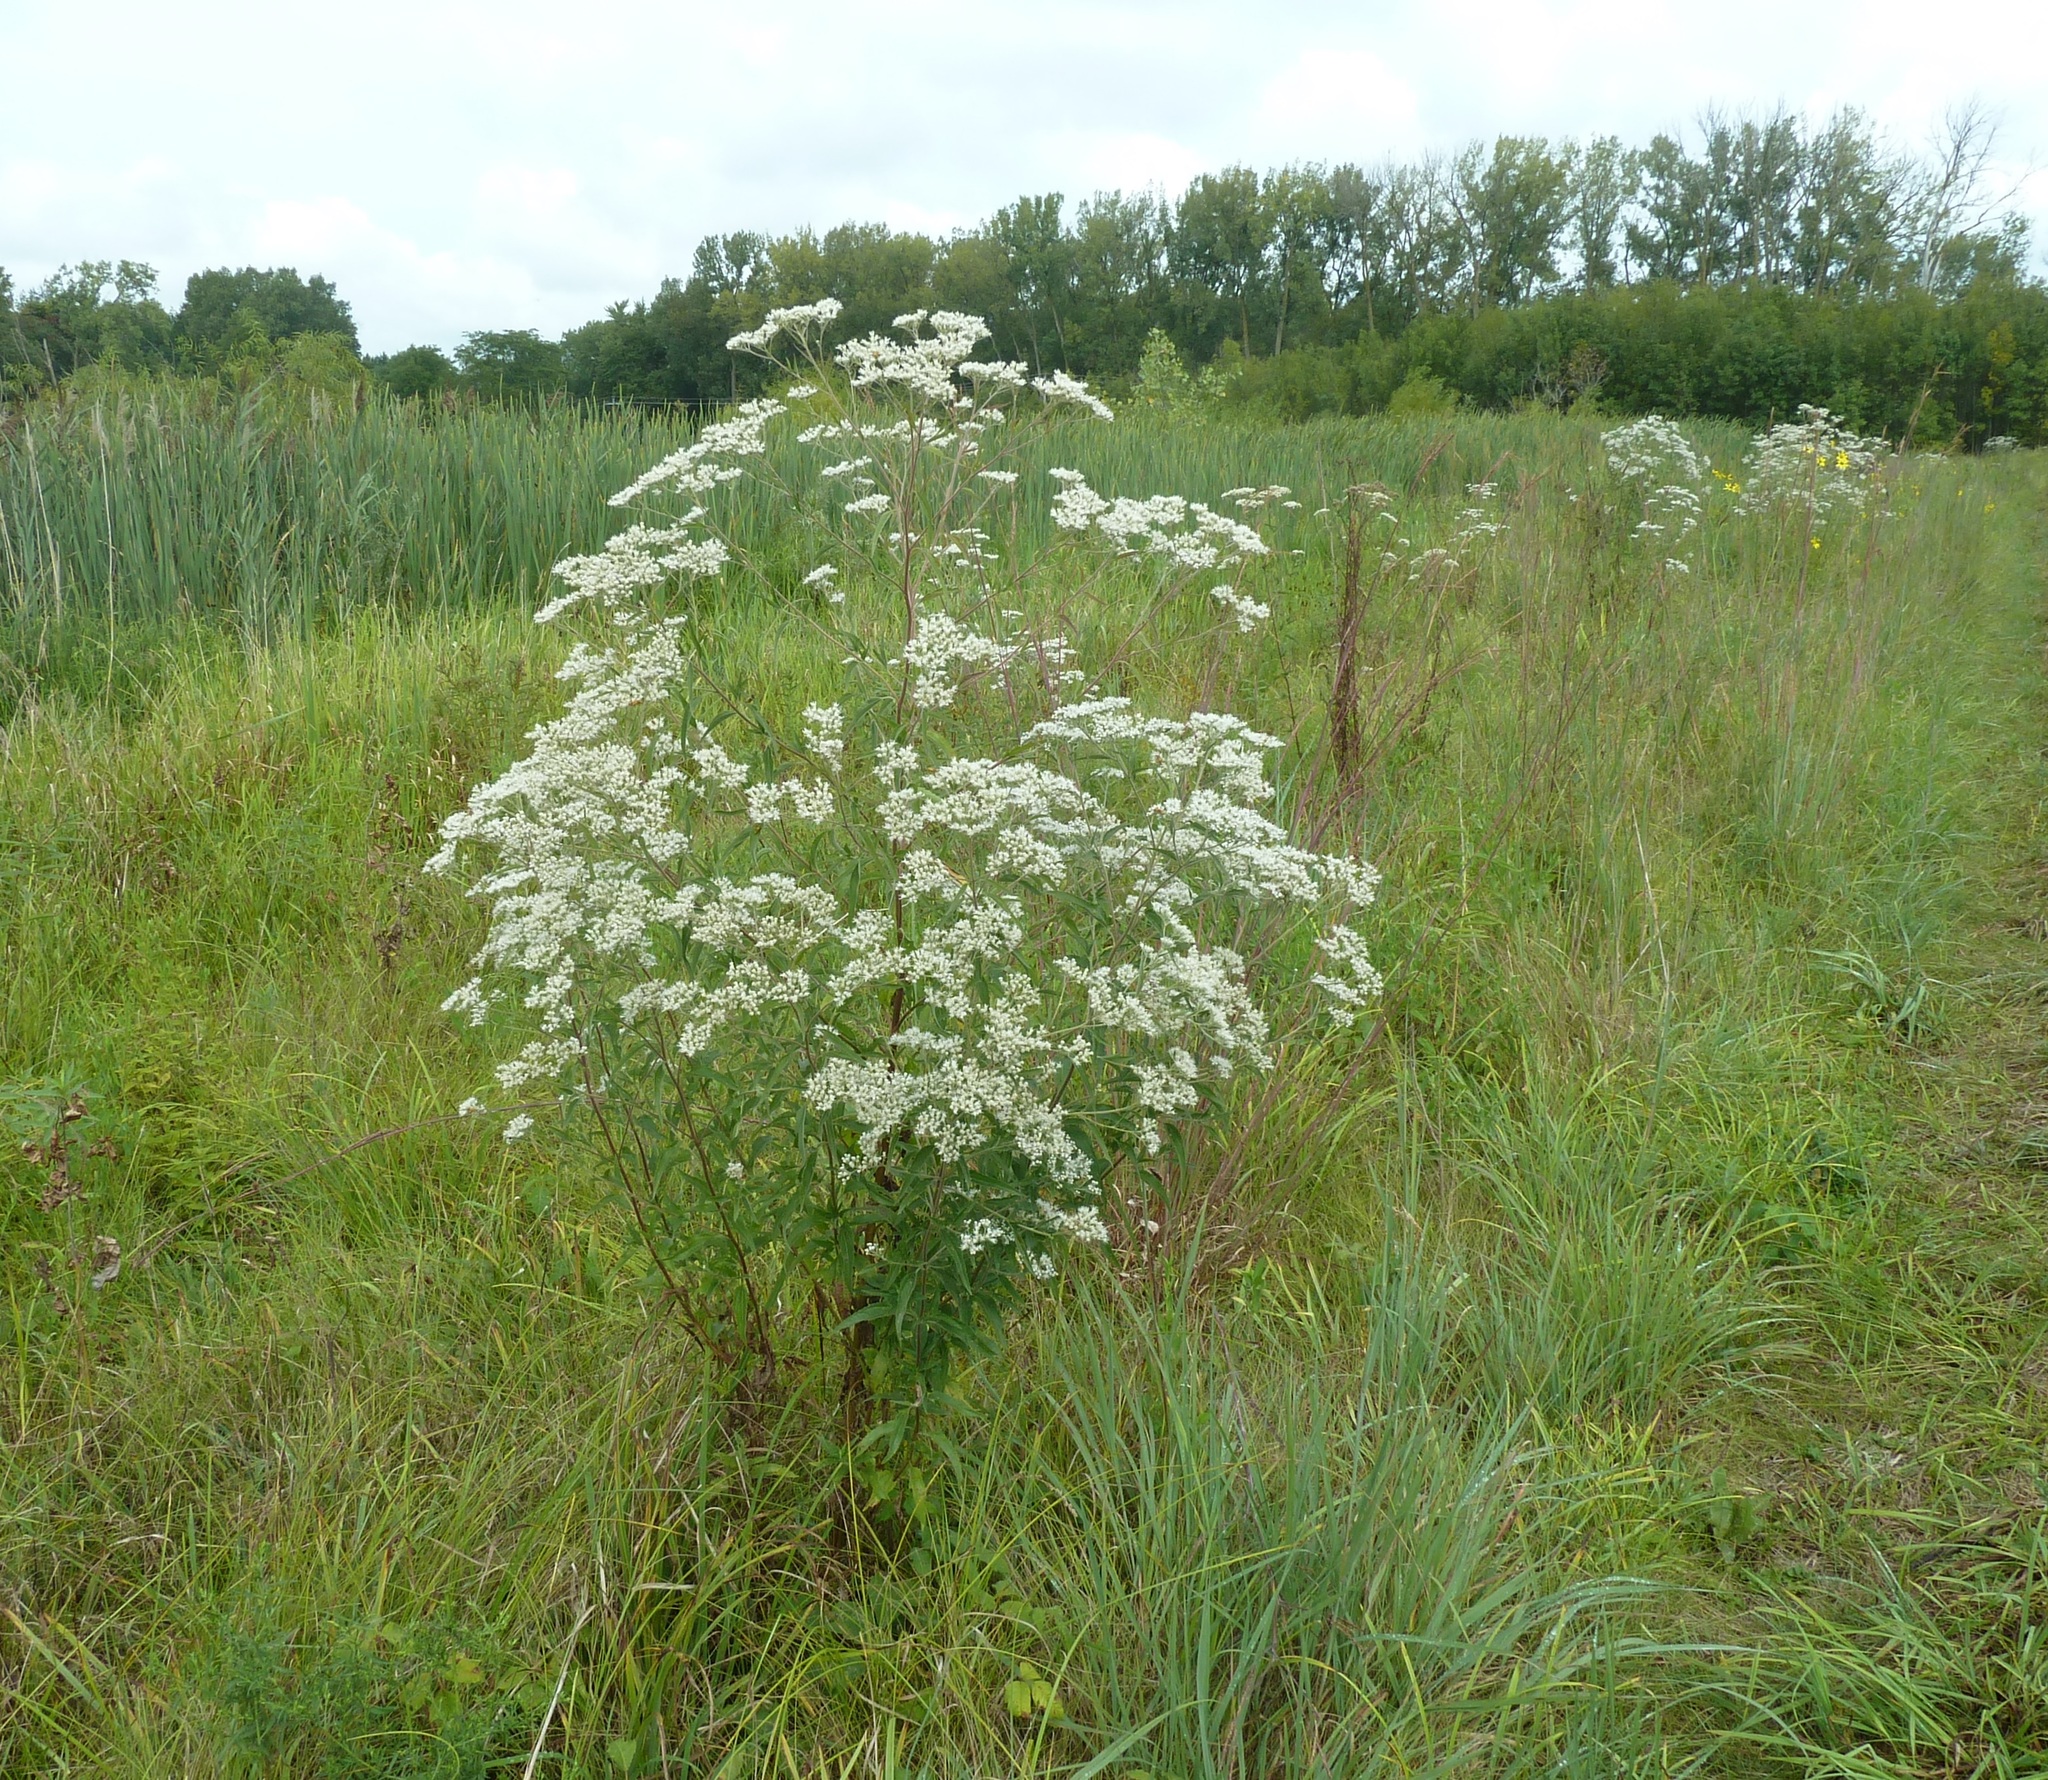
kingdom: Plantae
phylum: Tracheophyta
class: Magnoliopsida
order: Asterales
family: Asteraceae
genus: Eupatorium
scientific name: Eupatorium serotinum
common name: Late boneset
